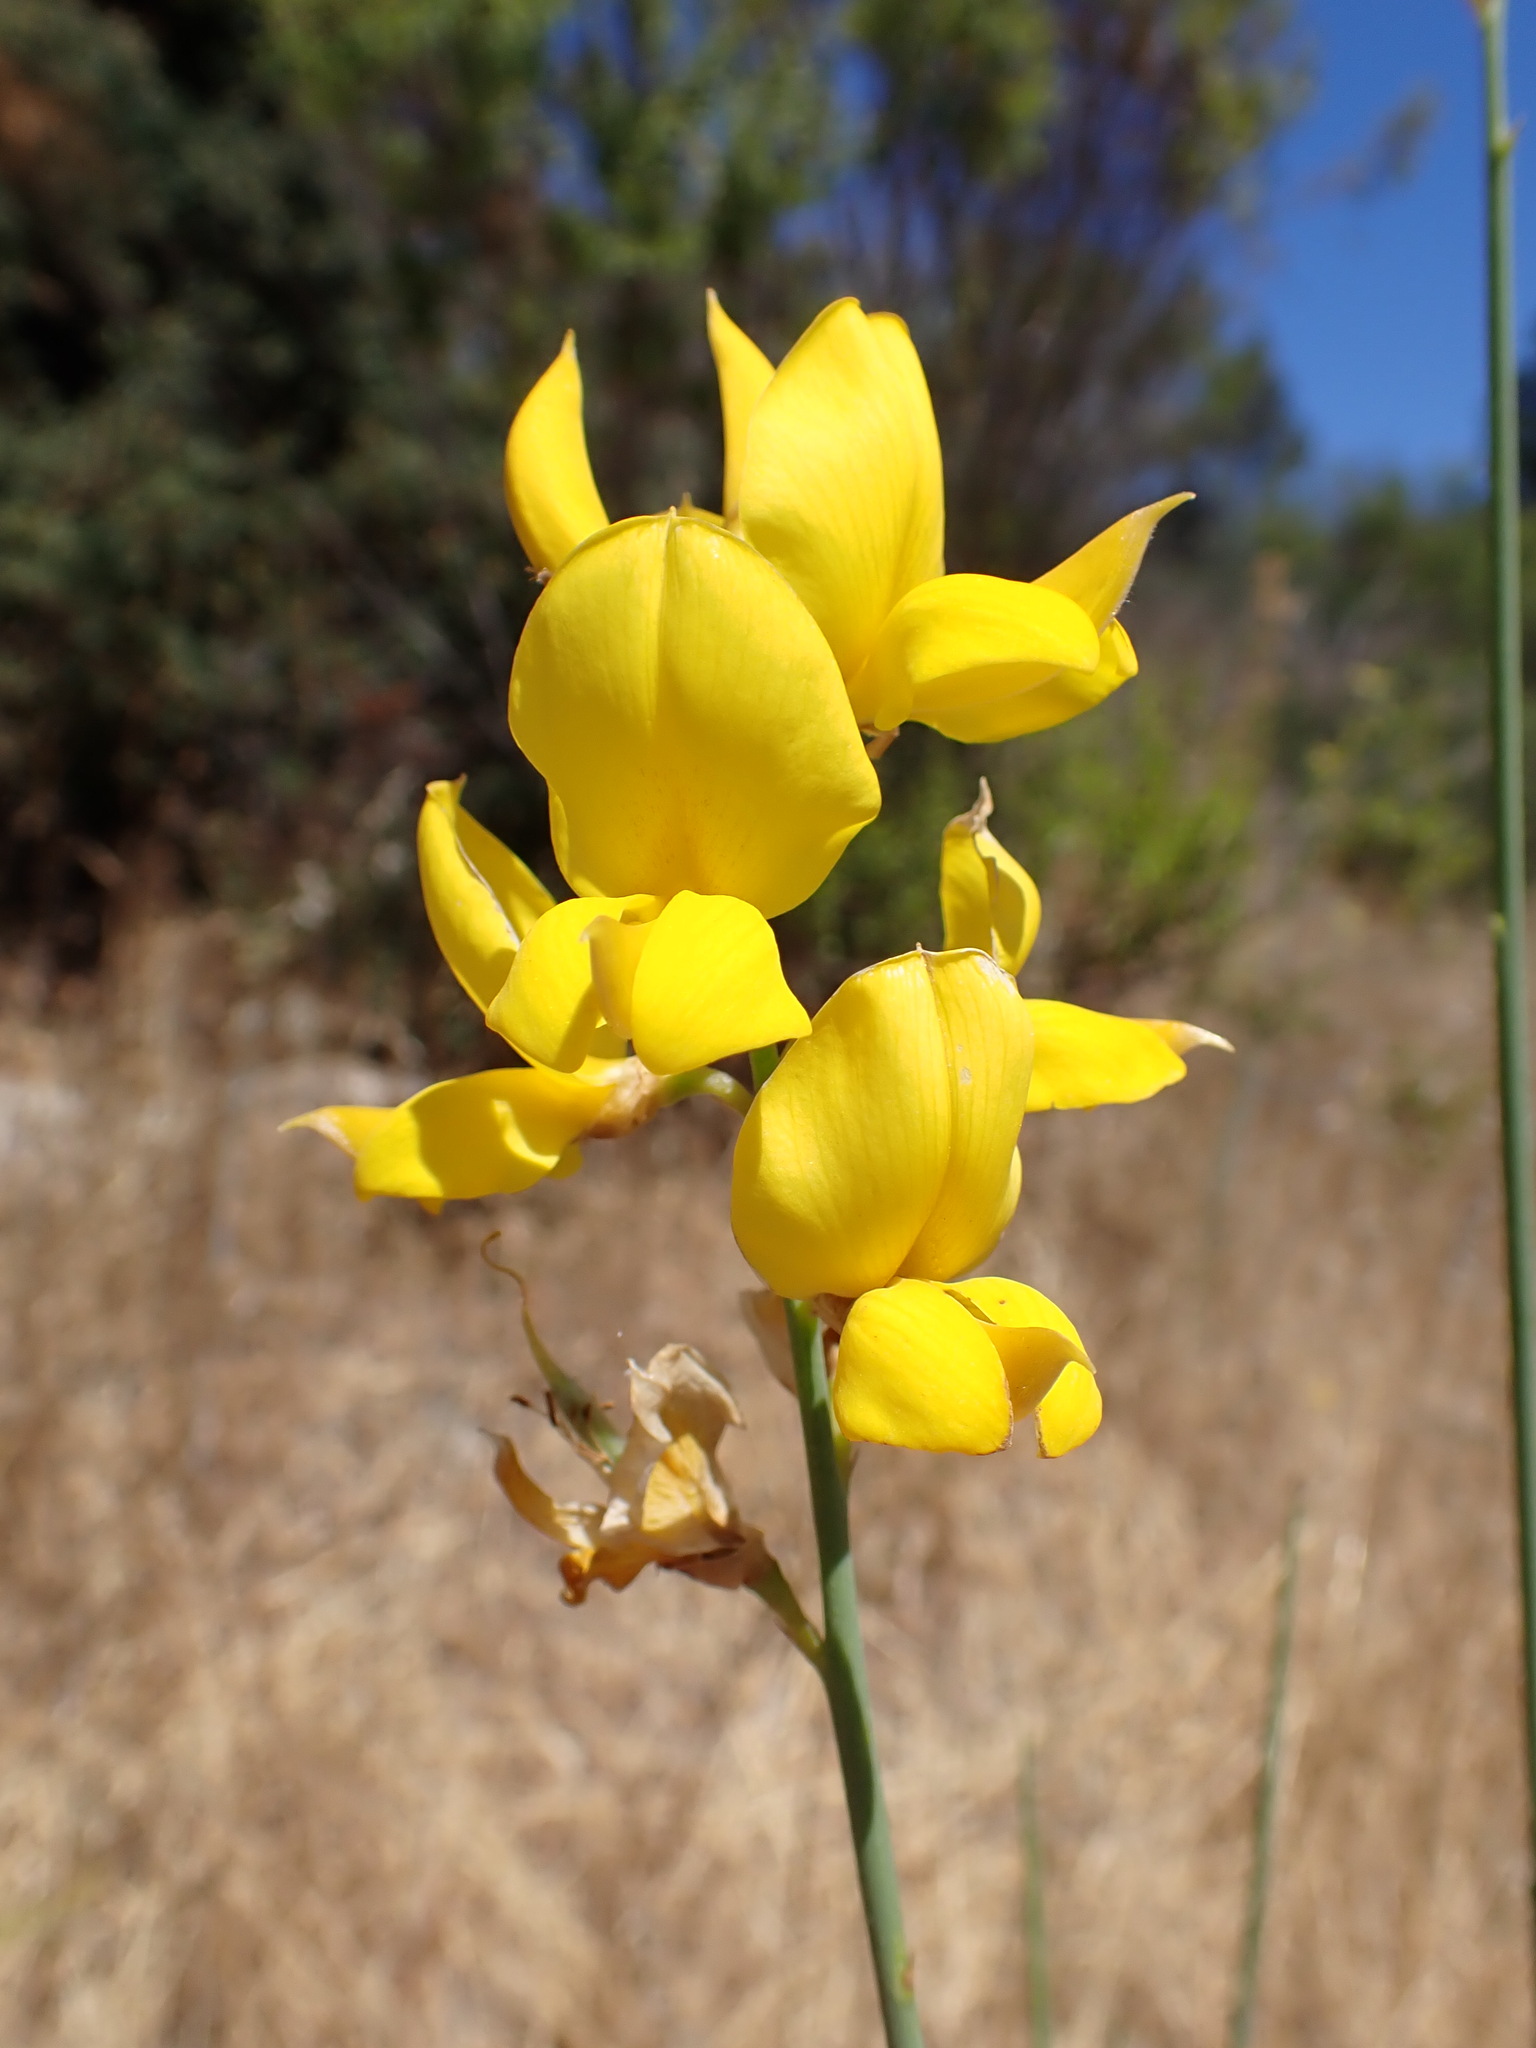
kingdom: Plantae
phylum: Tracheophyta
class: Magnoliopsida
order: Fabales
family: Fabaceae
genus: Spartium
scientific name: Spartium junceum
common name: Spanish broom
